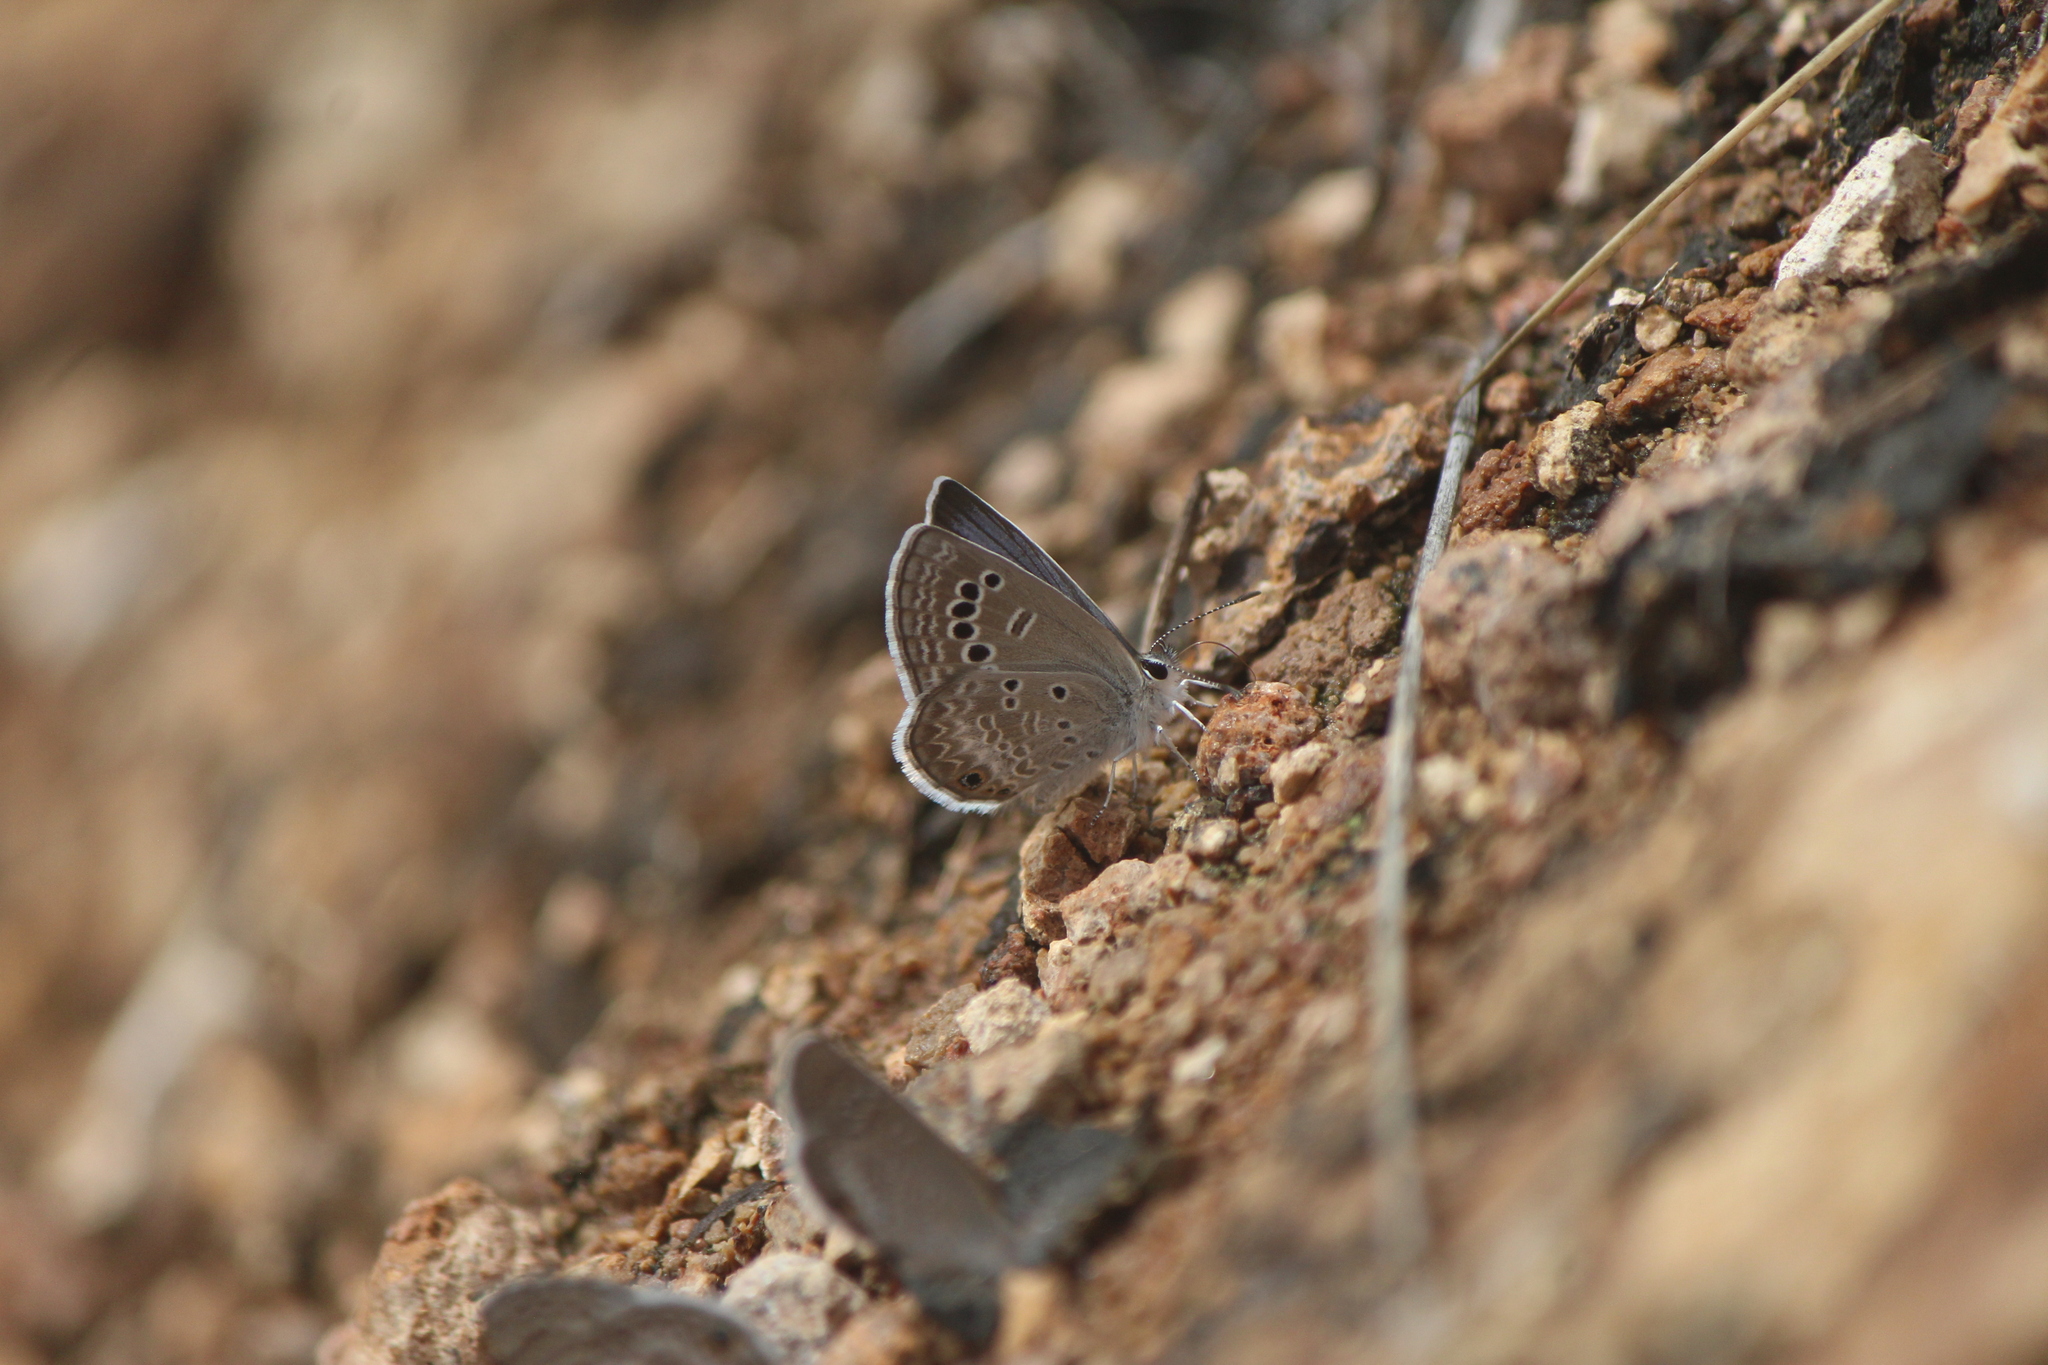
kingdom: Animalia
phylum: Arthropoda
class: Insecta
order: Lepidoptera
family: Lycaenidae
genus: Echinargus
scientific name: Echinargus isola
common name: Reakirt's blue
